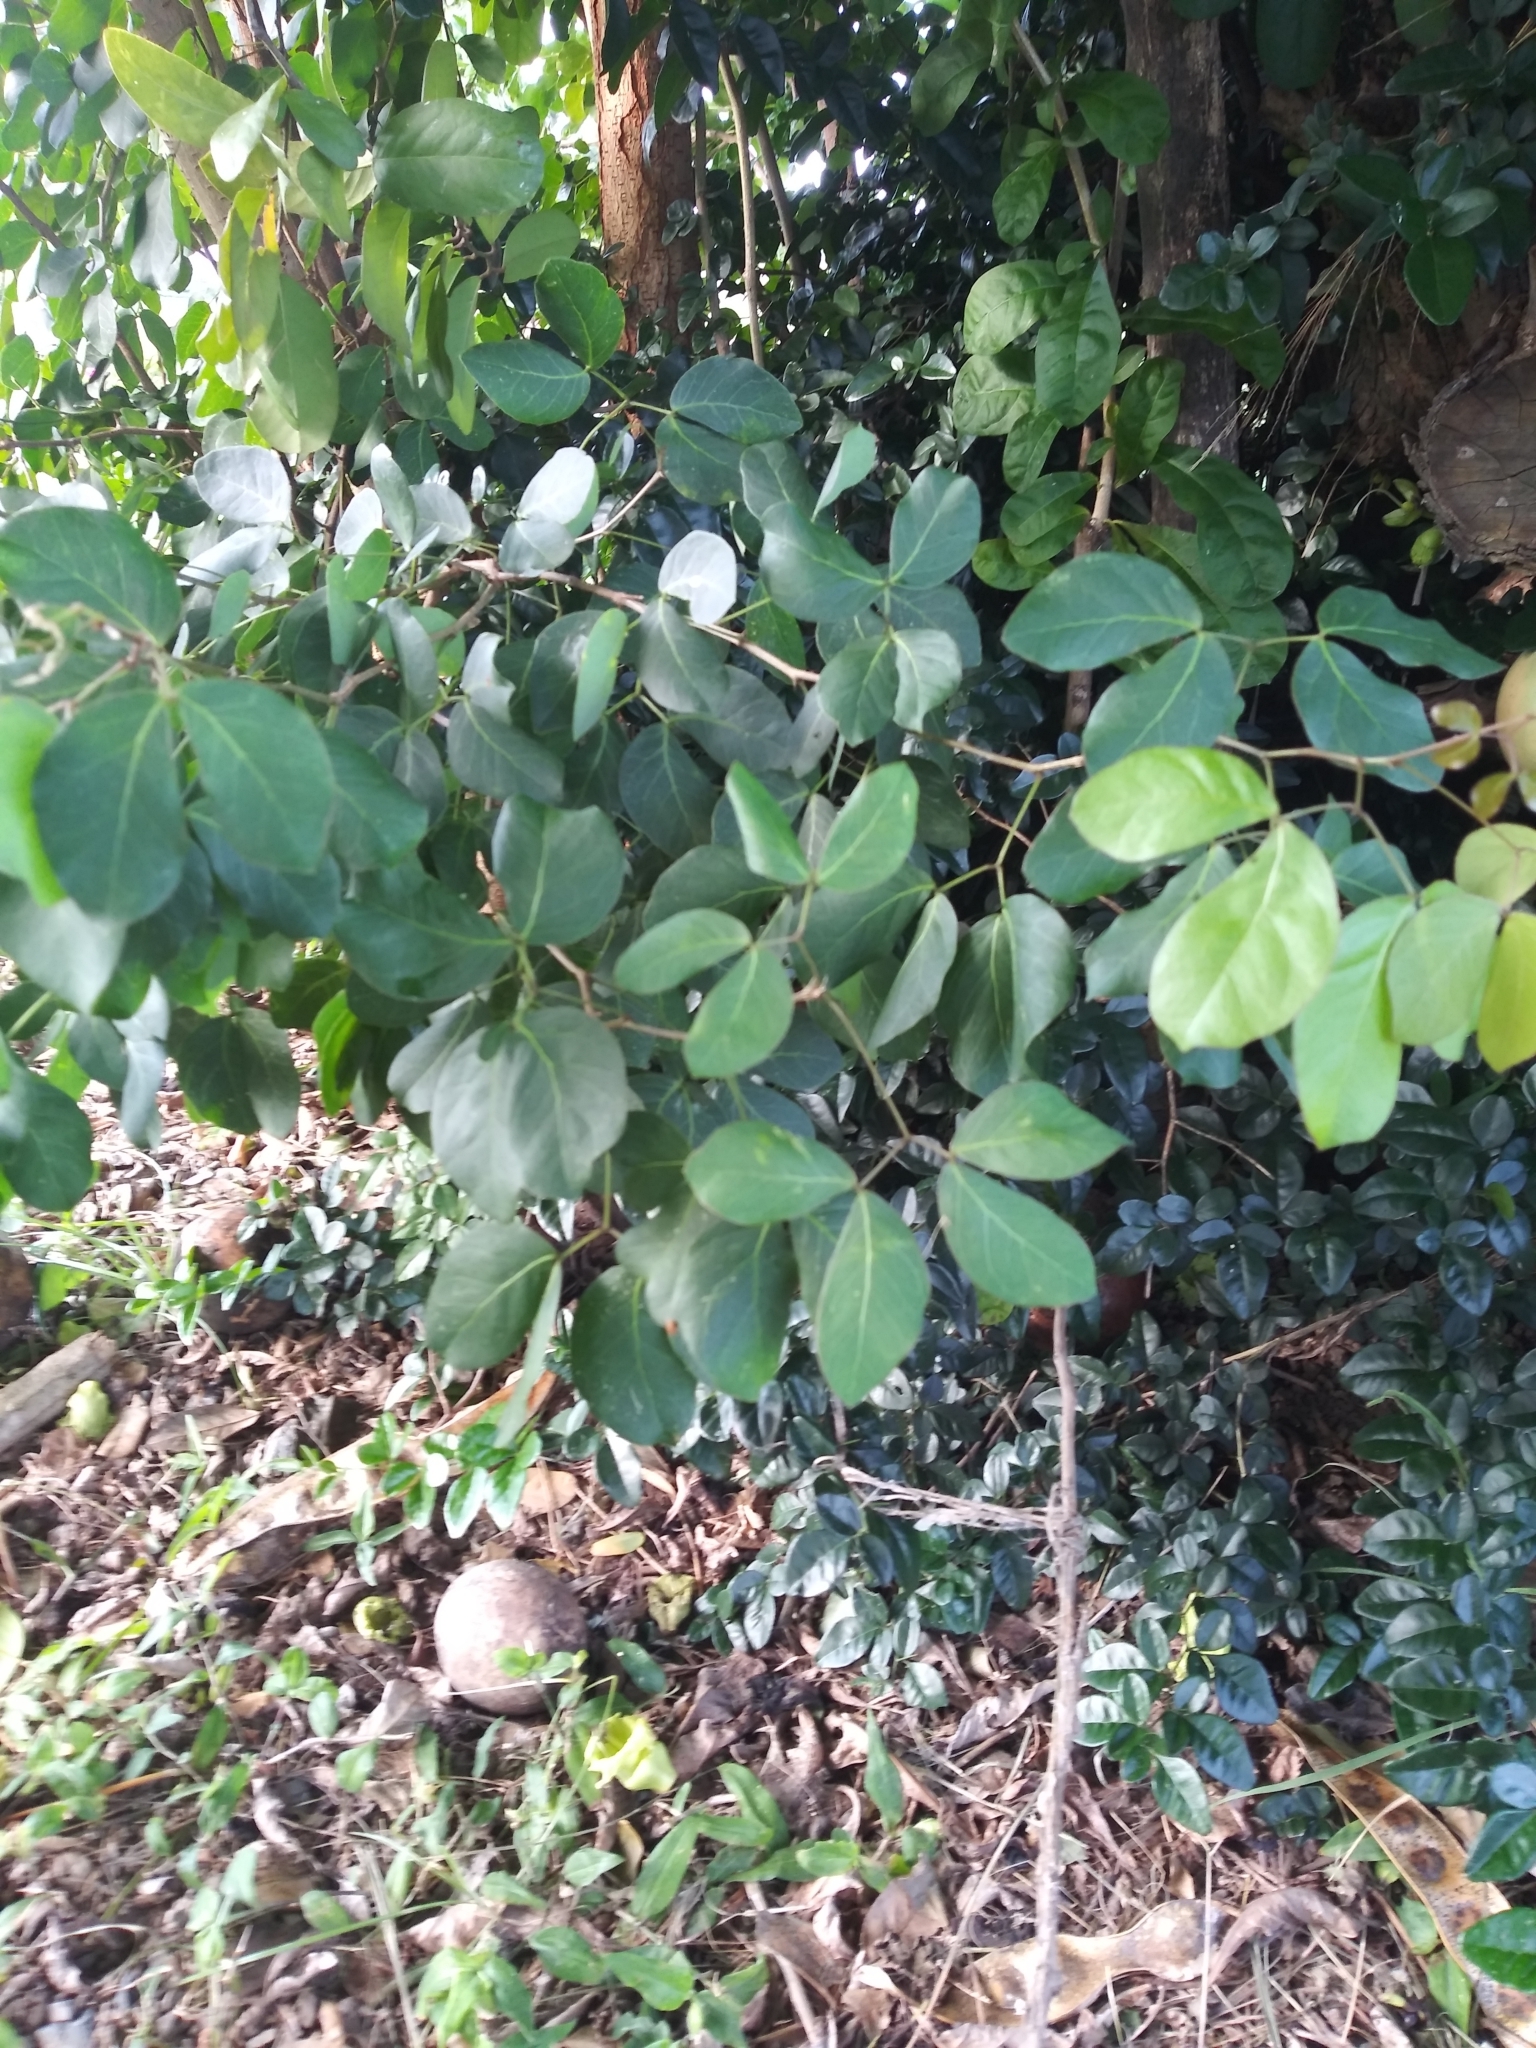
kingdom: Plantae
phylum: Tracheophyta
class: Magnoliopsida
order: Fabales
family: Fabaceae
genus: Pithecellobium
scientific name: Pithecellobium unguis-cati
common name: Cat's-claw
